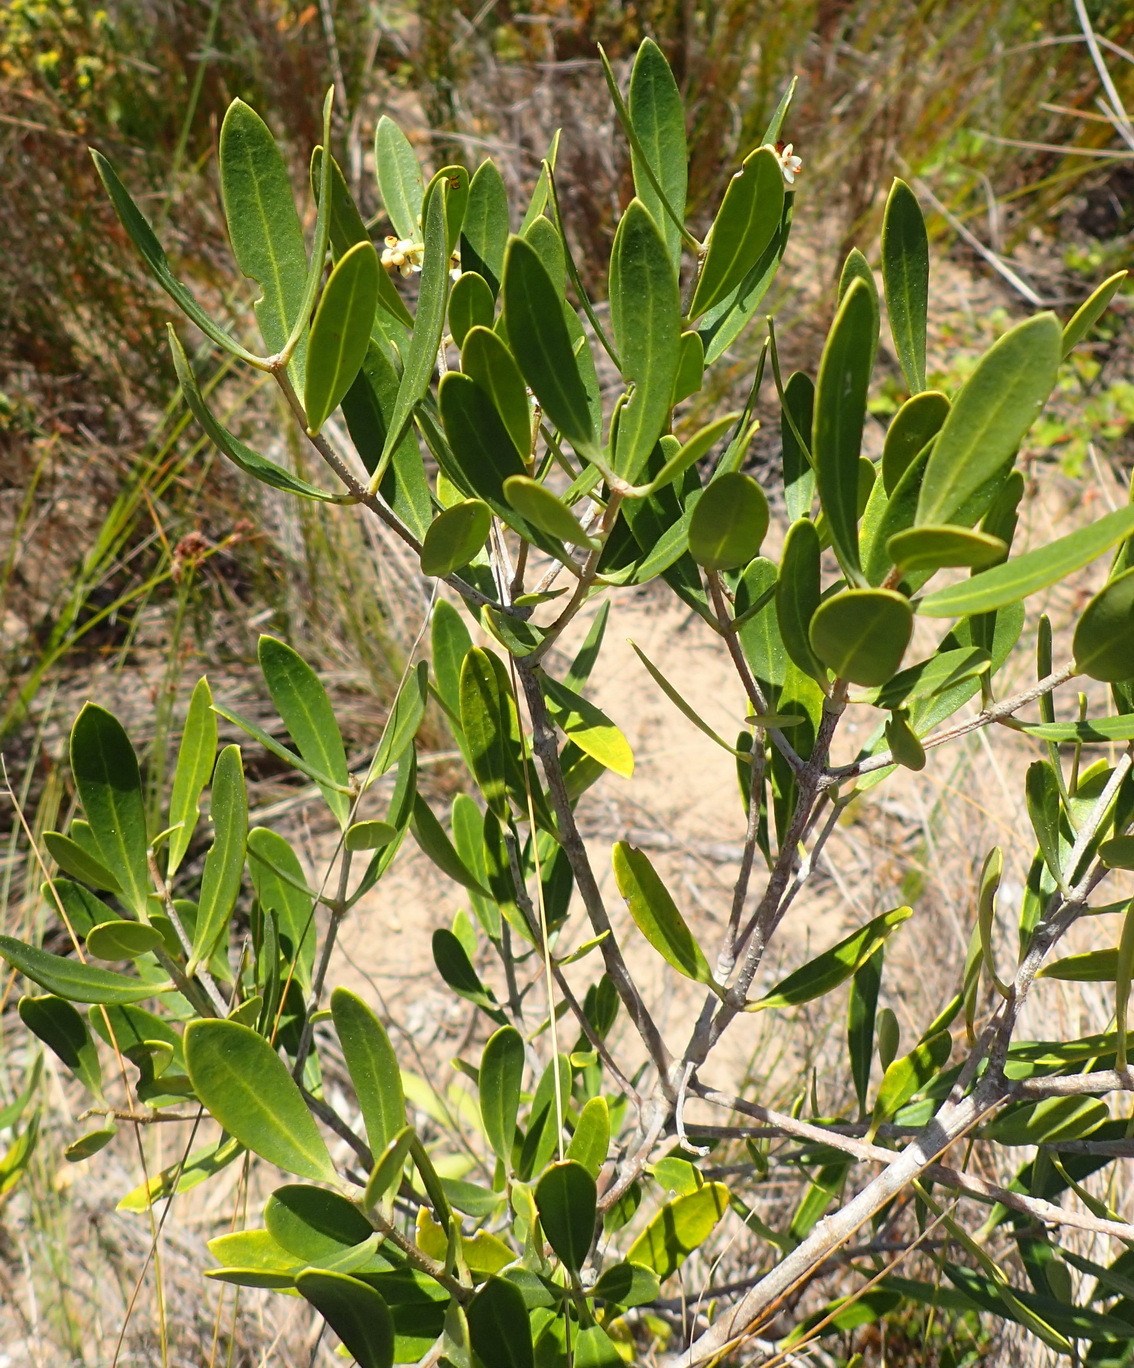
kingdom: Plantae
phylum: Tracheophyta
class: Magnoliopsida
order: Lamiales
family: Oleaceae
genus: Olea
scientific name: Olea exasperata
